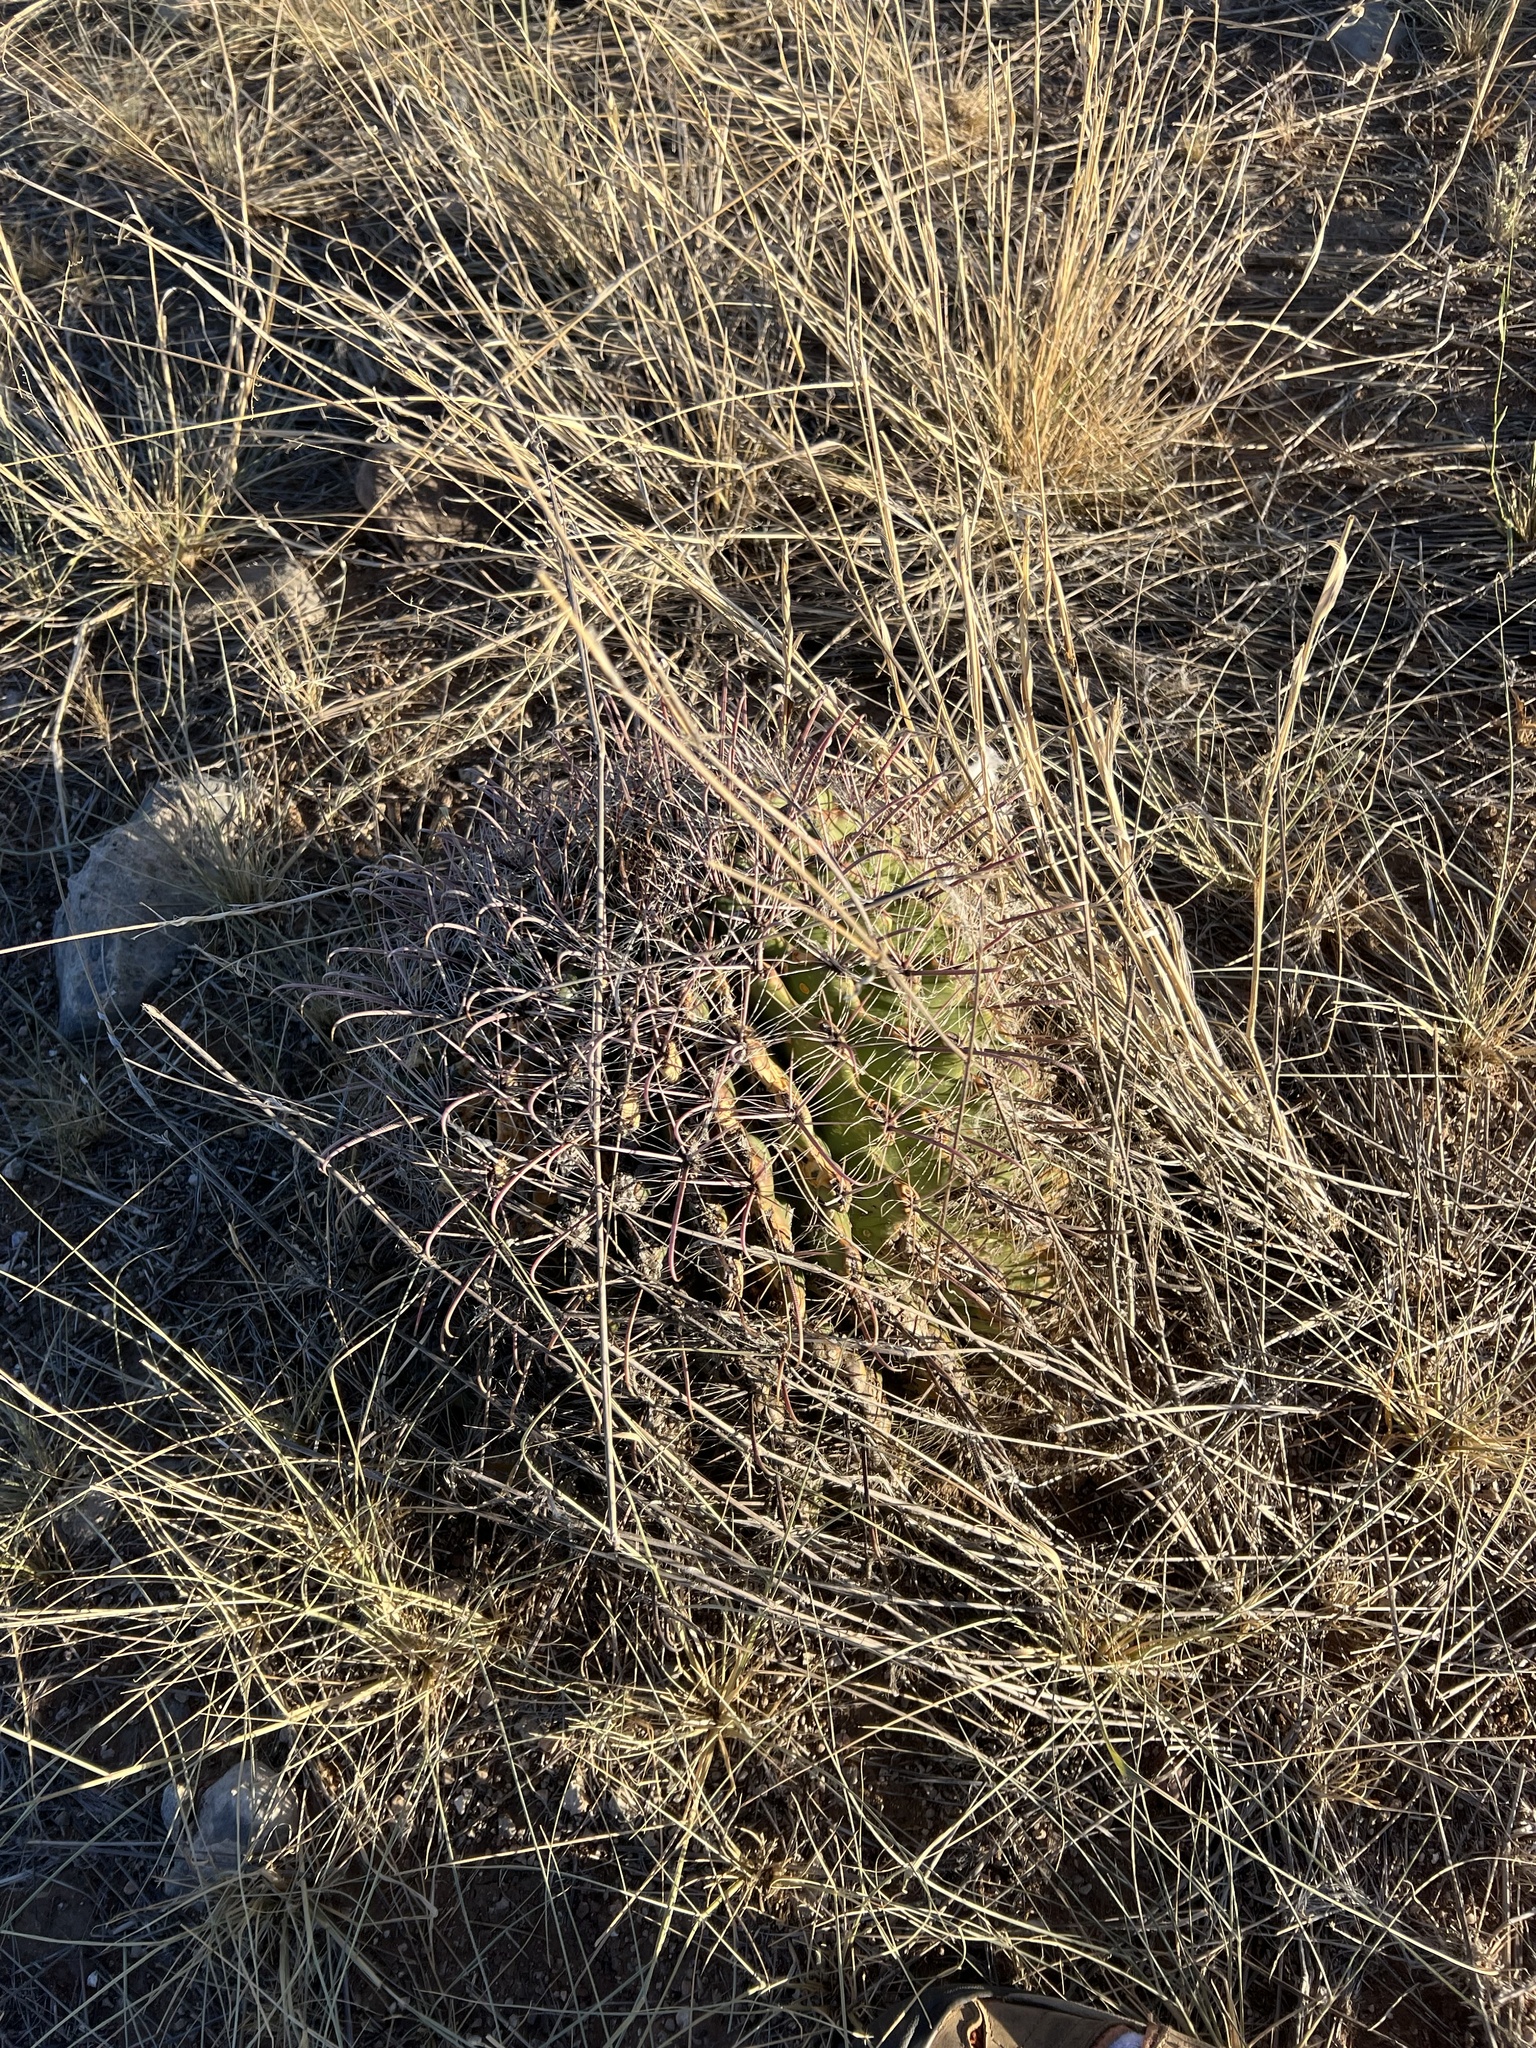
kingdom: Plantae
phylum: Tracheophyta
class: Magnoliopsida
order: Caryophyllales
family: Cactaceae
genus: Ferocactus
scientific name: Ferocactus wislizeni
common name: Candy barrel cactus
